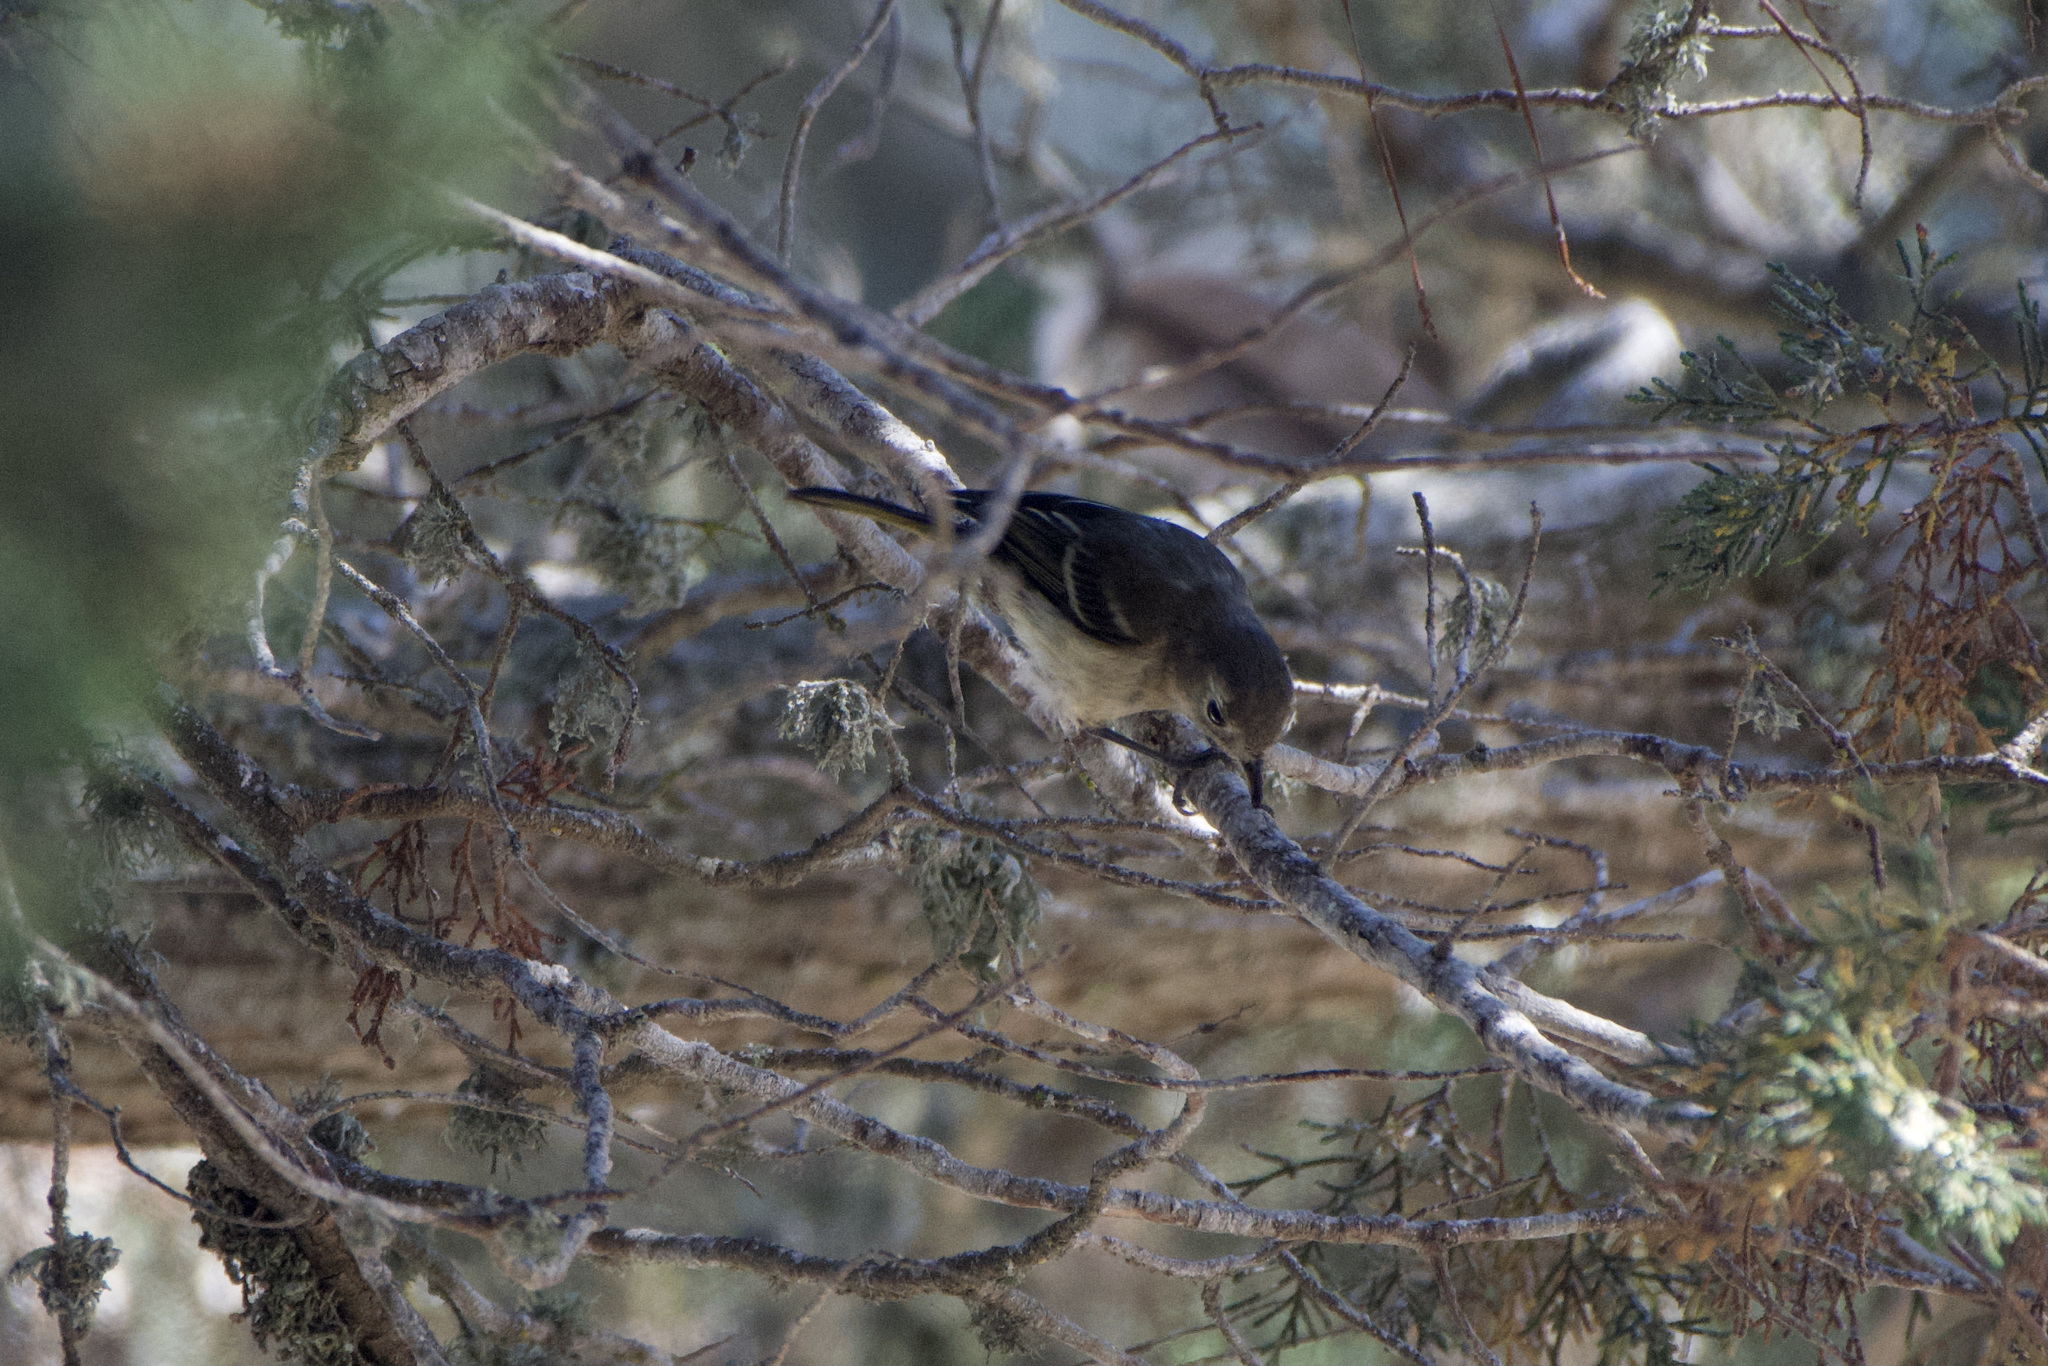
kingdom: Animalia
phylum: Chordata
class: Aves
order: Passeriformes
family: Vireonidae
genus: Vireo
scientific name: Vireo huttoni
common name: Hutton's vireo
